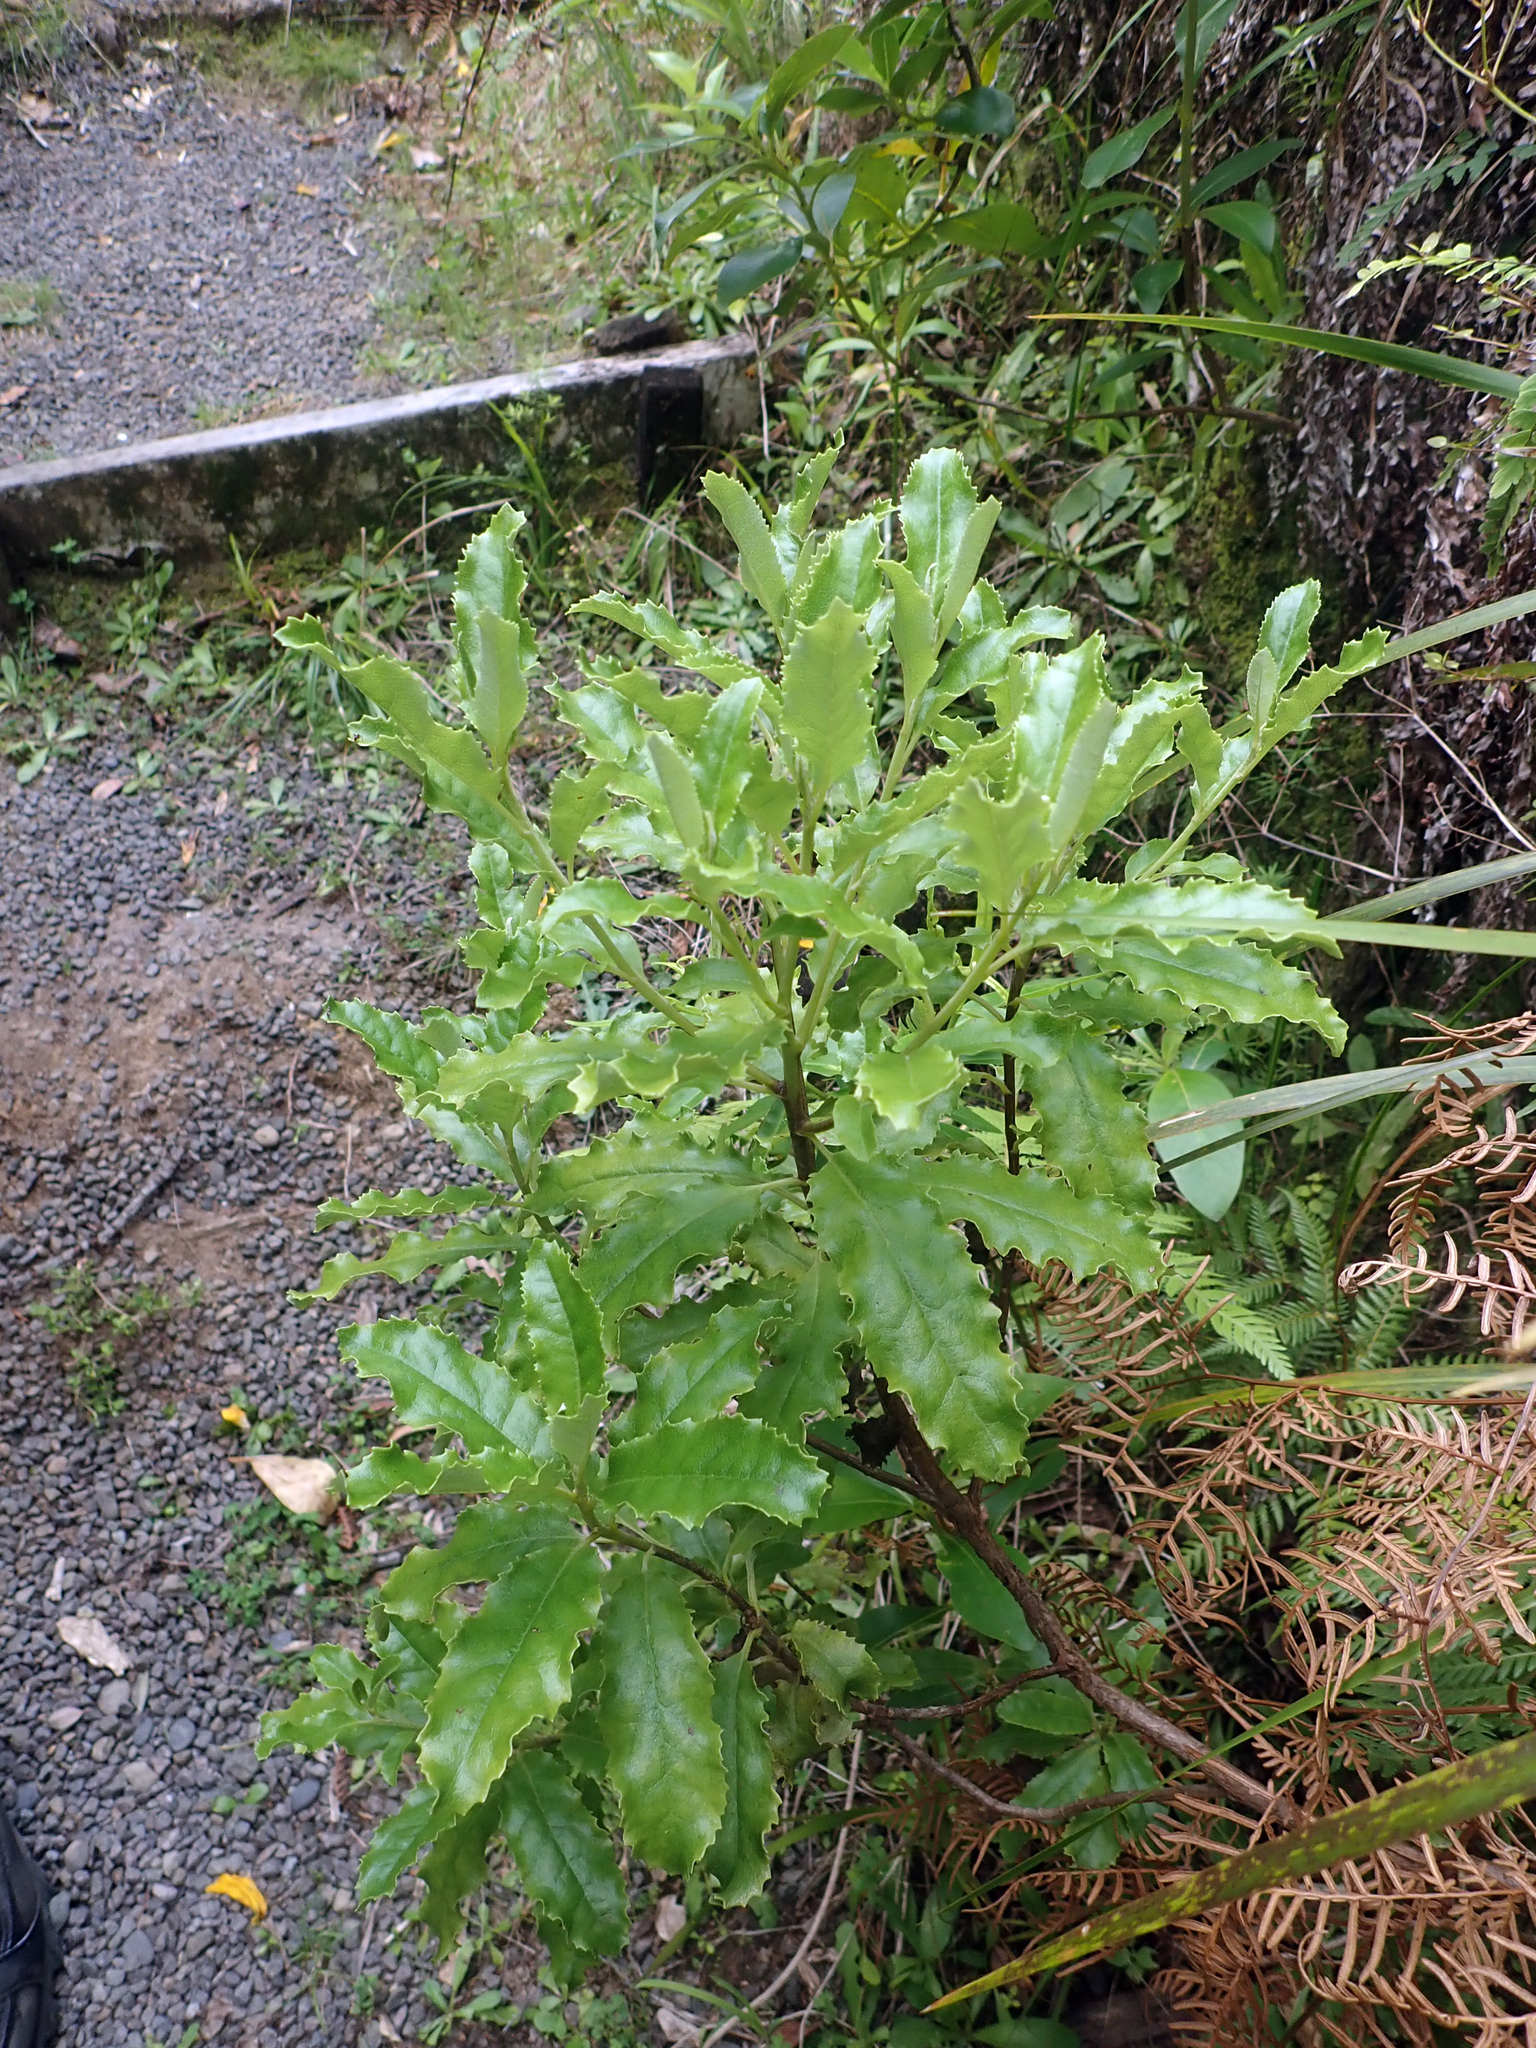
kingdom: Plantae
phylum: Tracheophyta
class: Magnoliopsida
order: Asterales
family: Asteraceae
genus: Brachyglottis
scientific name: Brachyglottis perdicioides
